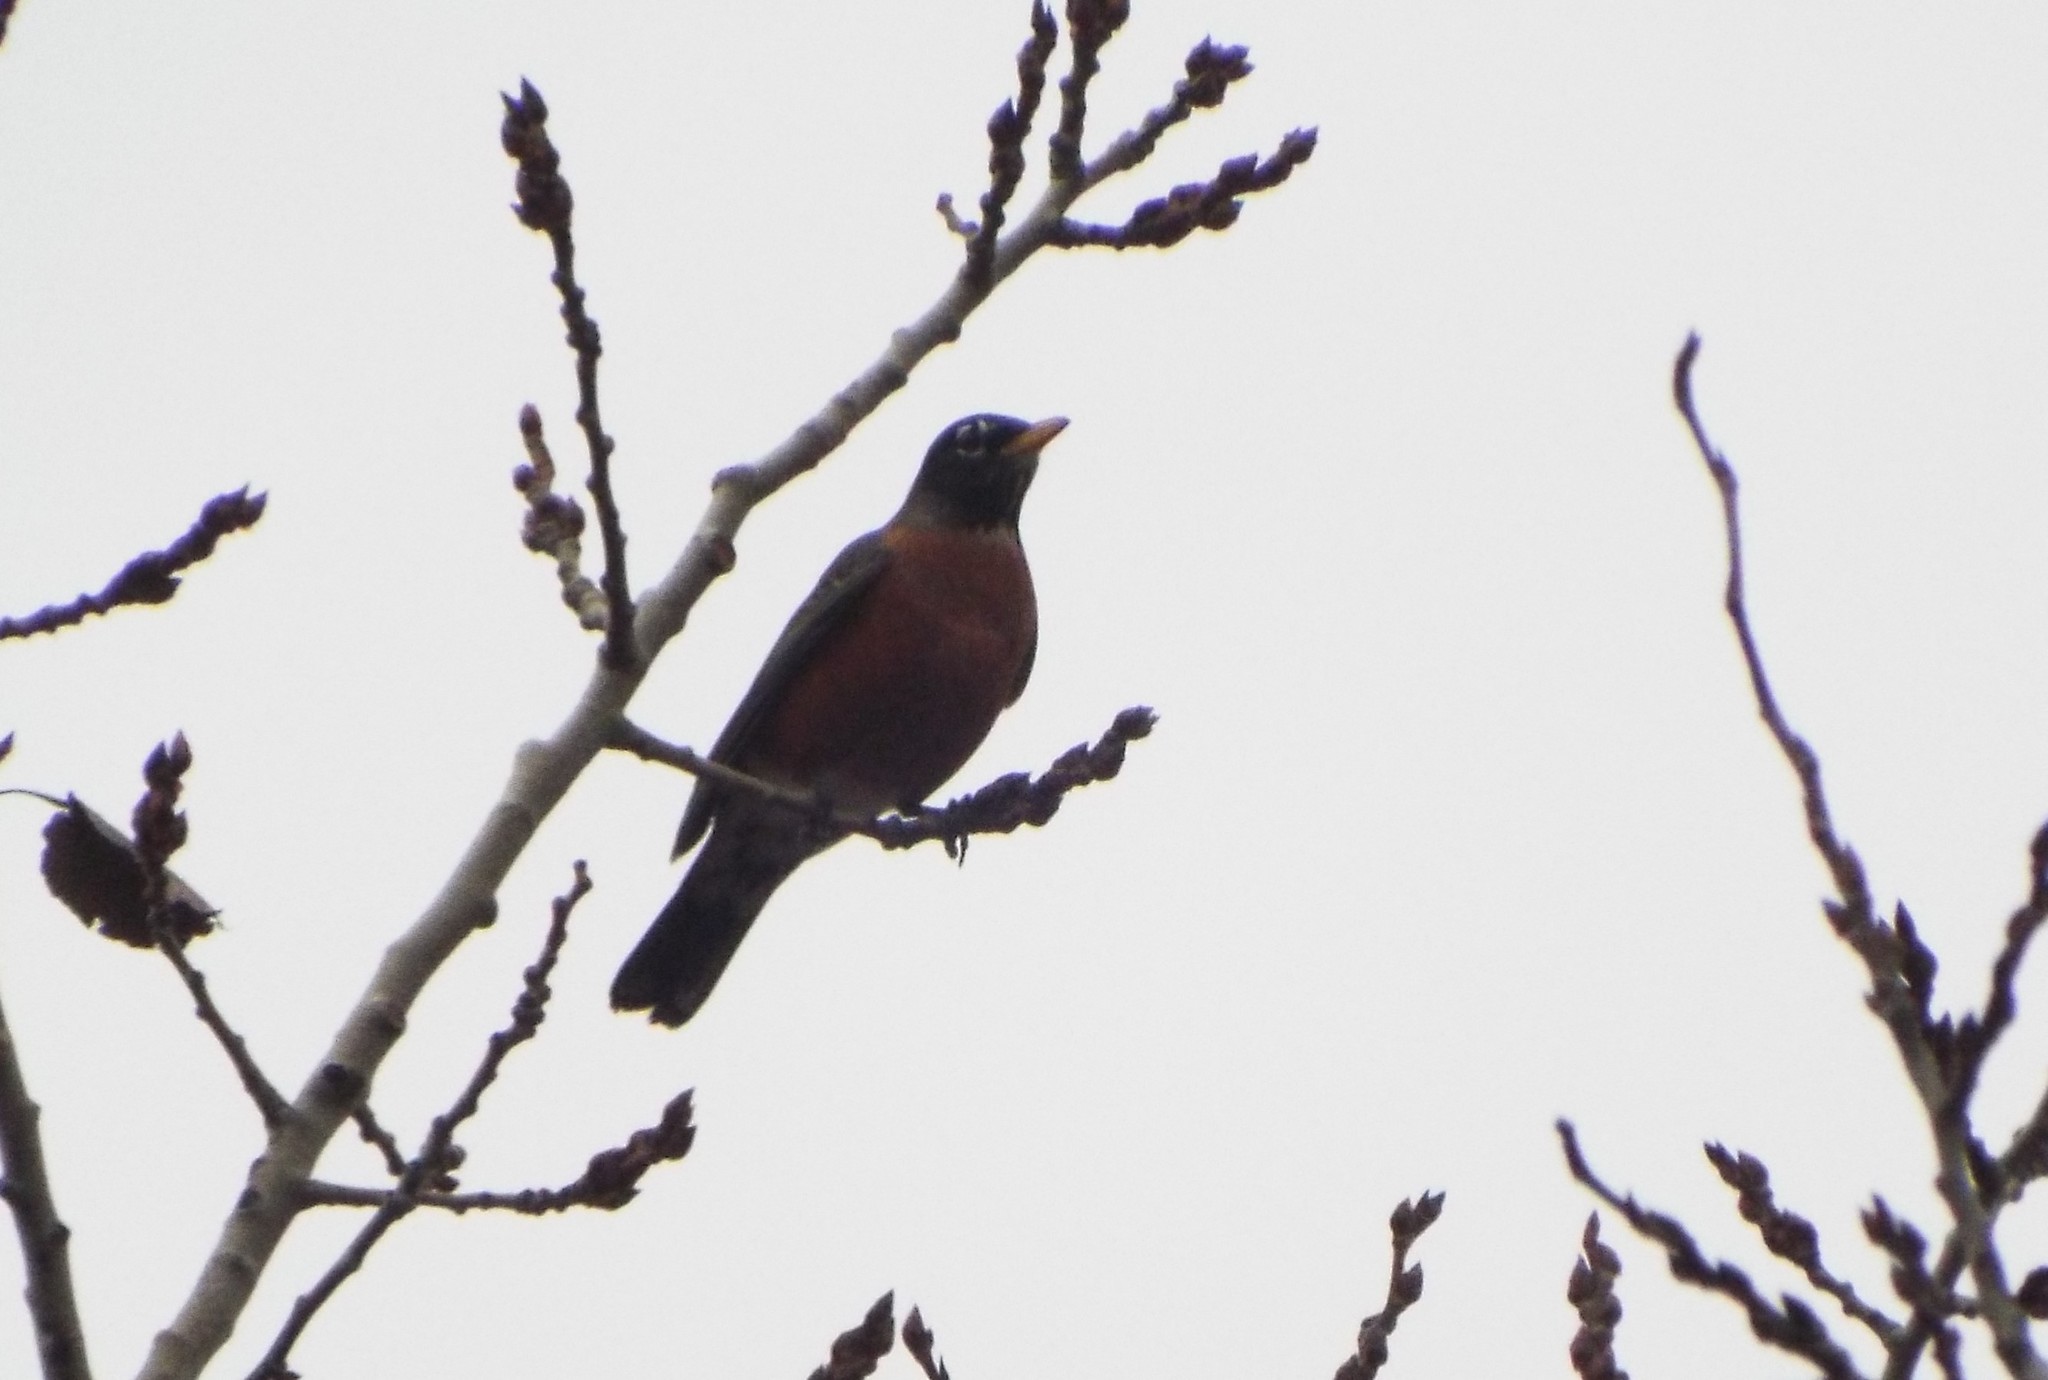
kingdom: Animalia
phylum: Chordata
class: Aves
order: Passeriformes
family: Turdidae
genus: Turdus
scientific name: Turdus migratorius
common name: American robin
